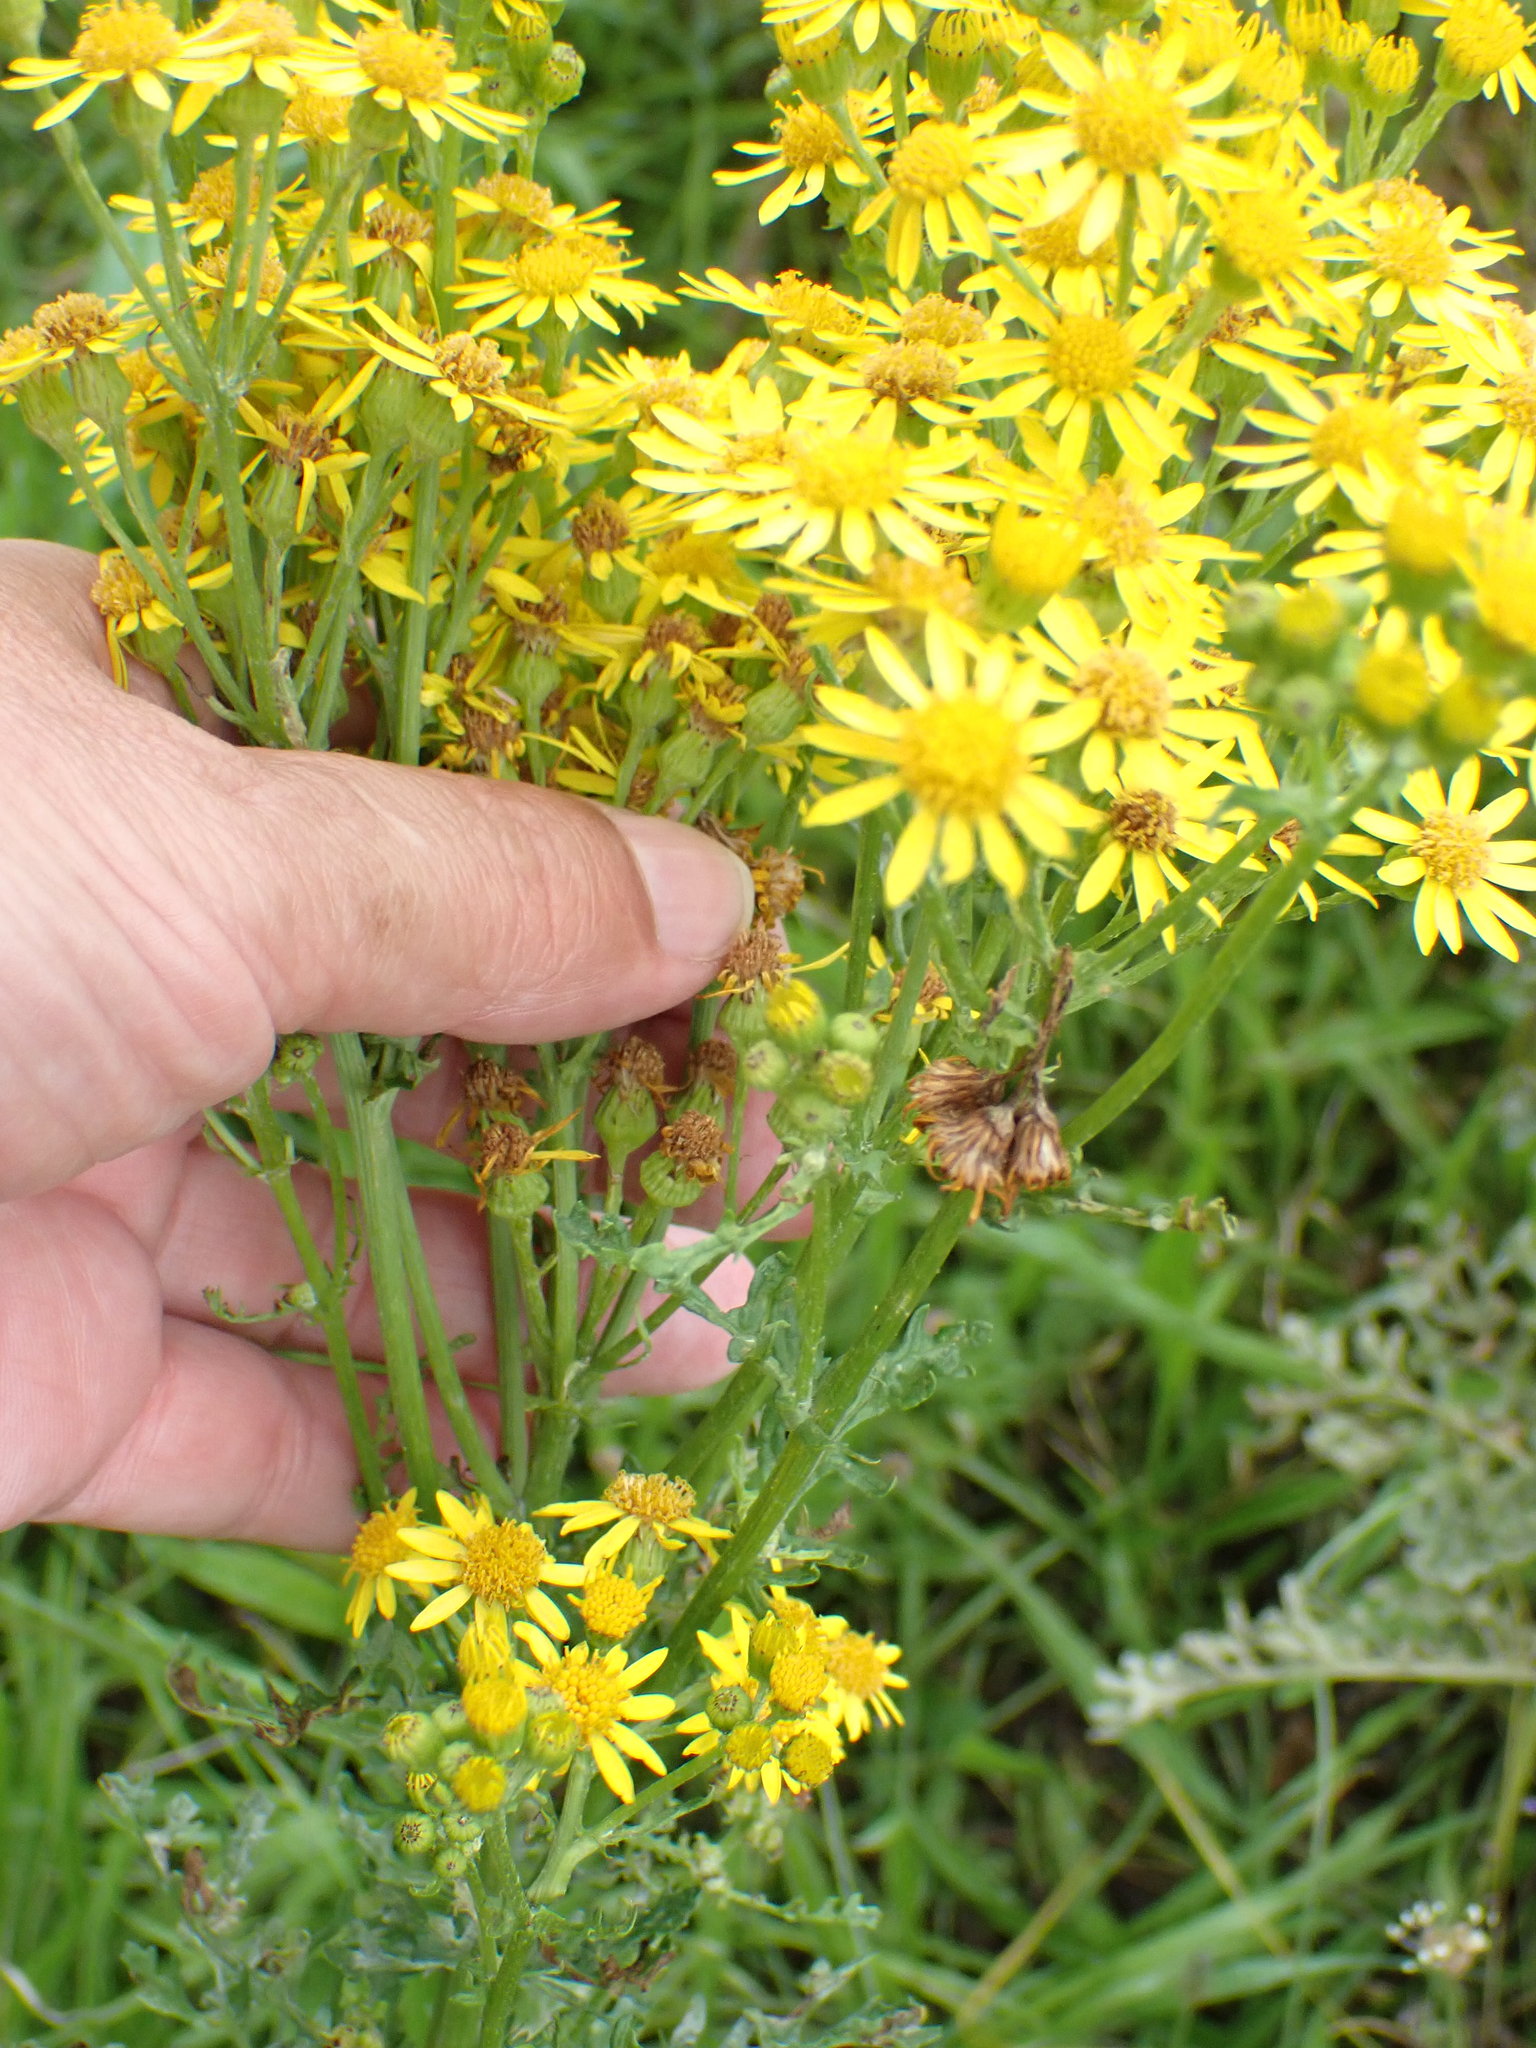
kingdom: Plantae
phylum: Tracheophyta
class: Magnoliopsida
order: Asterales
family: Asteraceae
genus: Jacobaea
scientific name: Jacobaea vulgaris
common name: Stinking willie
